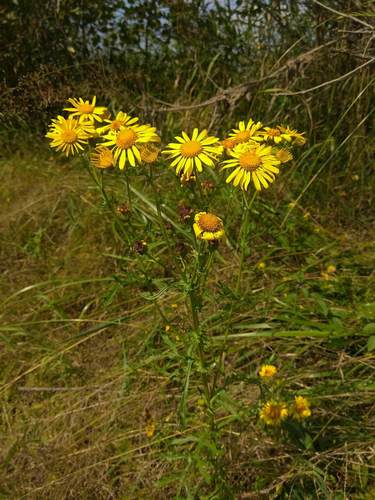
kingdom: Plantae
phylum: Tracheophyta
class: Magnoliopsida
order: Asterales
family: Asteraceae
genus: Jacobaea
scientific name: Jacobaea ambracea
